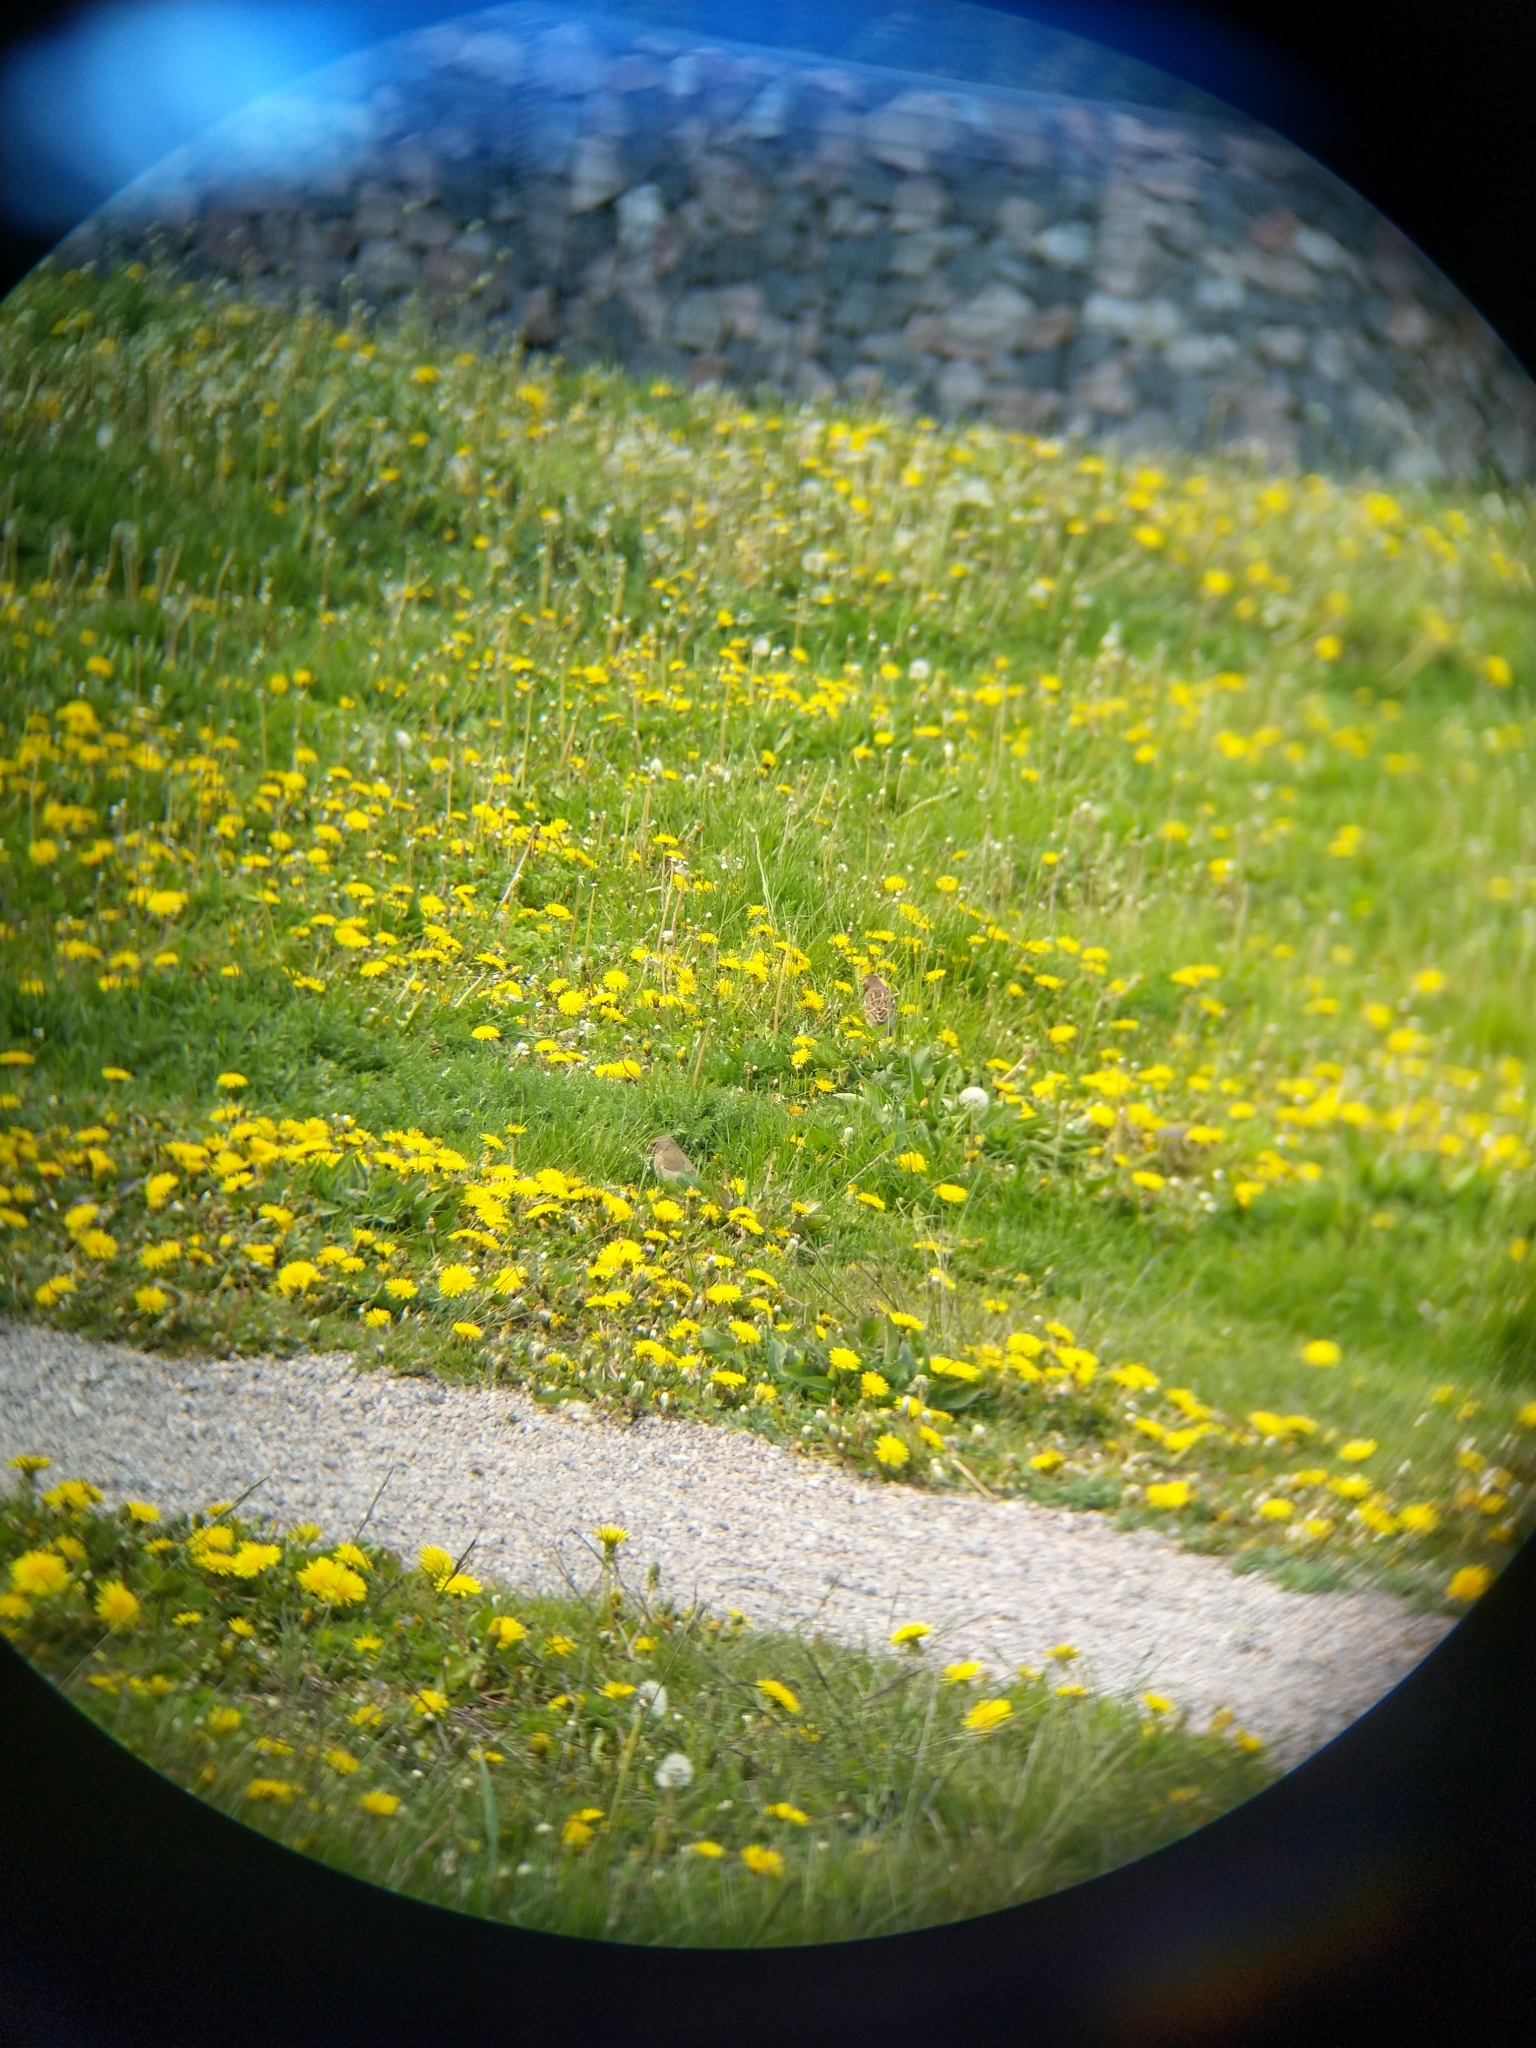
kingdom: Animalia
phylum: Chordata
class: Aves
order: Passeriformes
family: Fringillidae
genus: Linaria
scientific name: Linaria cannabina
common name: Common linnet
